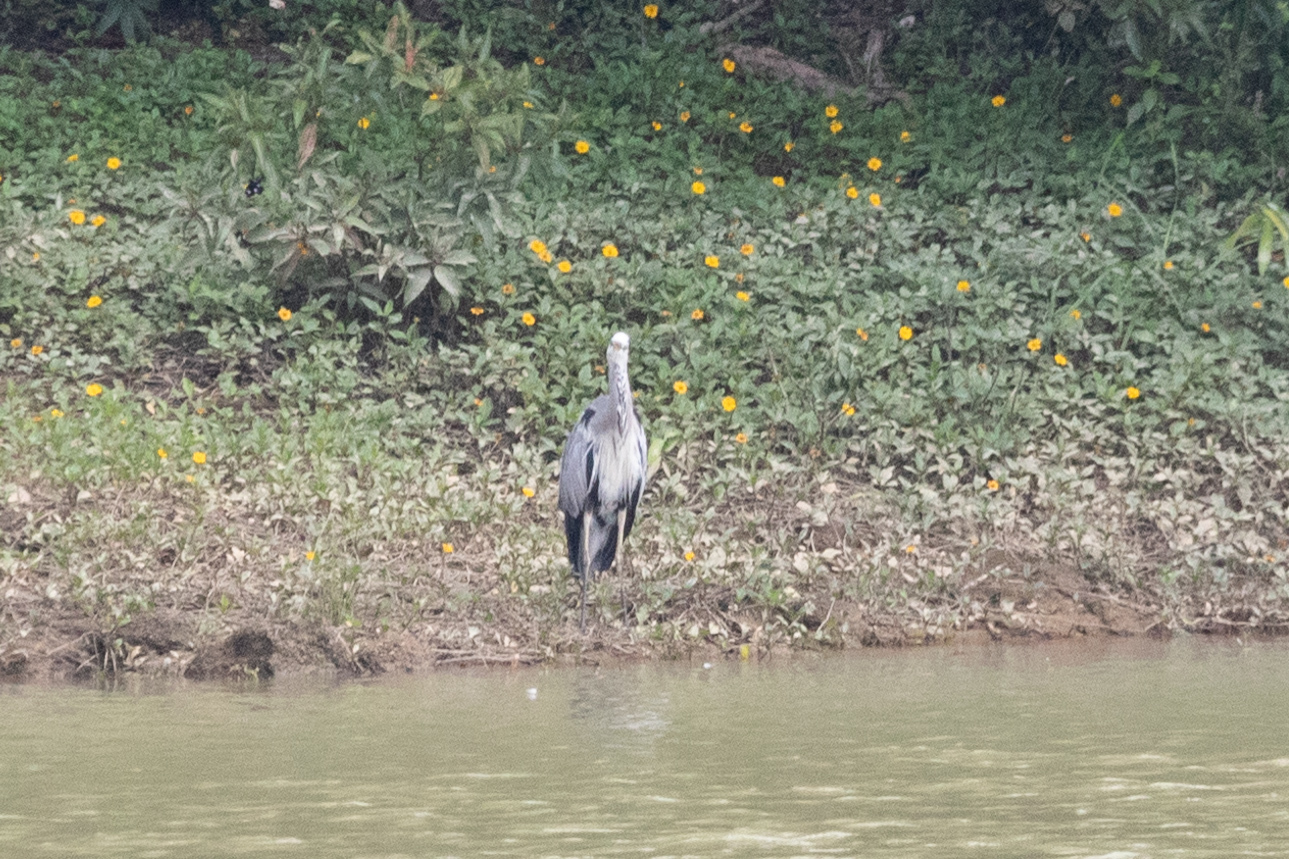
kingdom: Animalia
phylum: Chordata
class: Aves
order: Pelecaniformes
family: Ardeidae
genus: Ardea
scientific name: Ardea cinerea
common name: Grey heron
